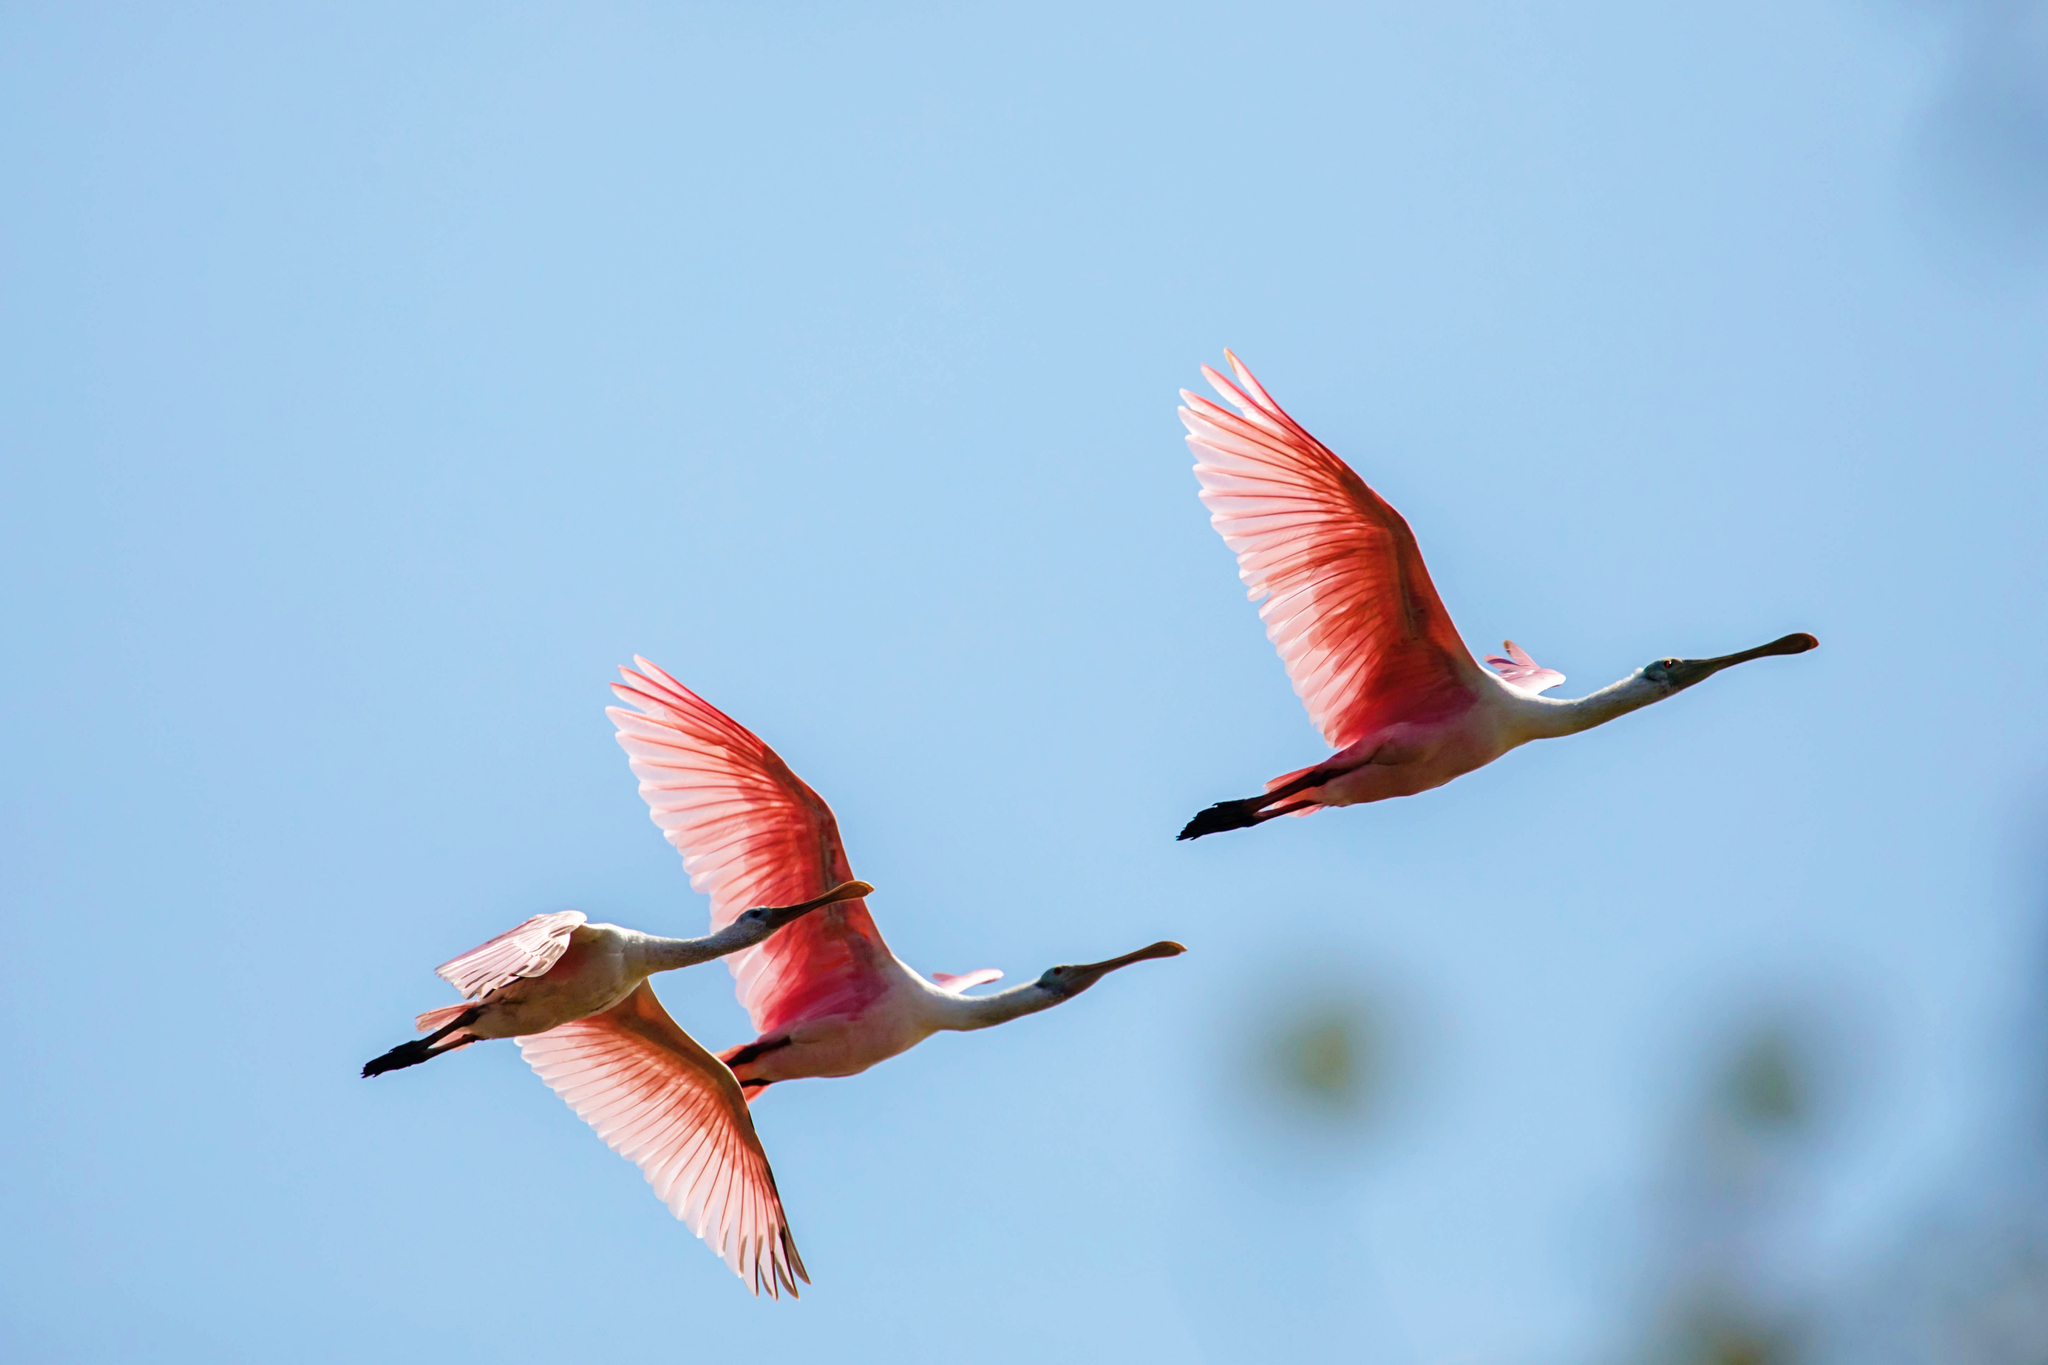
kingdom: Animalia
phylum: Chordata
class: Aves
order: Pelecaniformes
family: Threskiornithidae
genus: Platalea
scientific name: Platalea ajaja
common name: Roseate spoonbill
